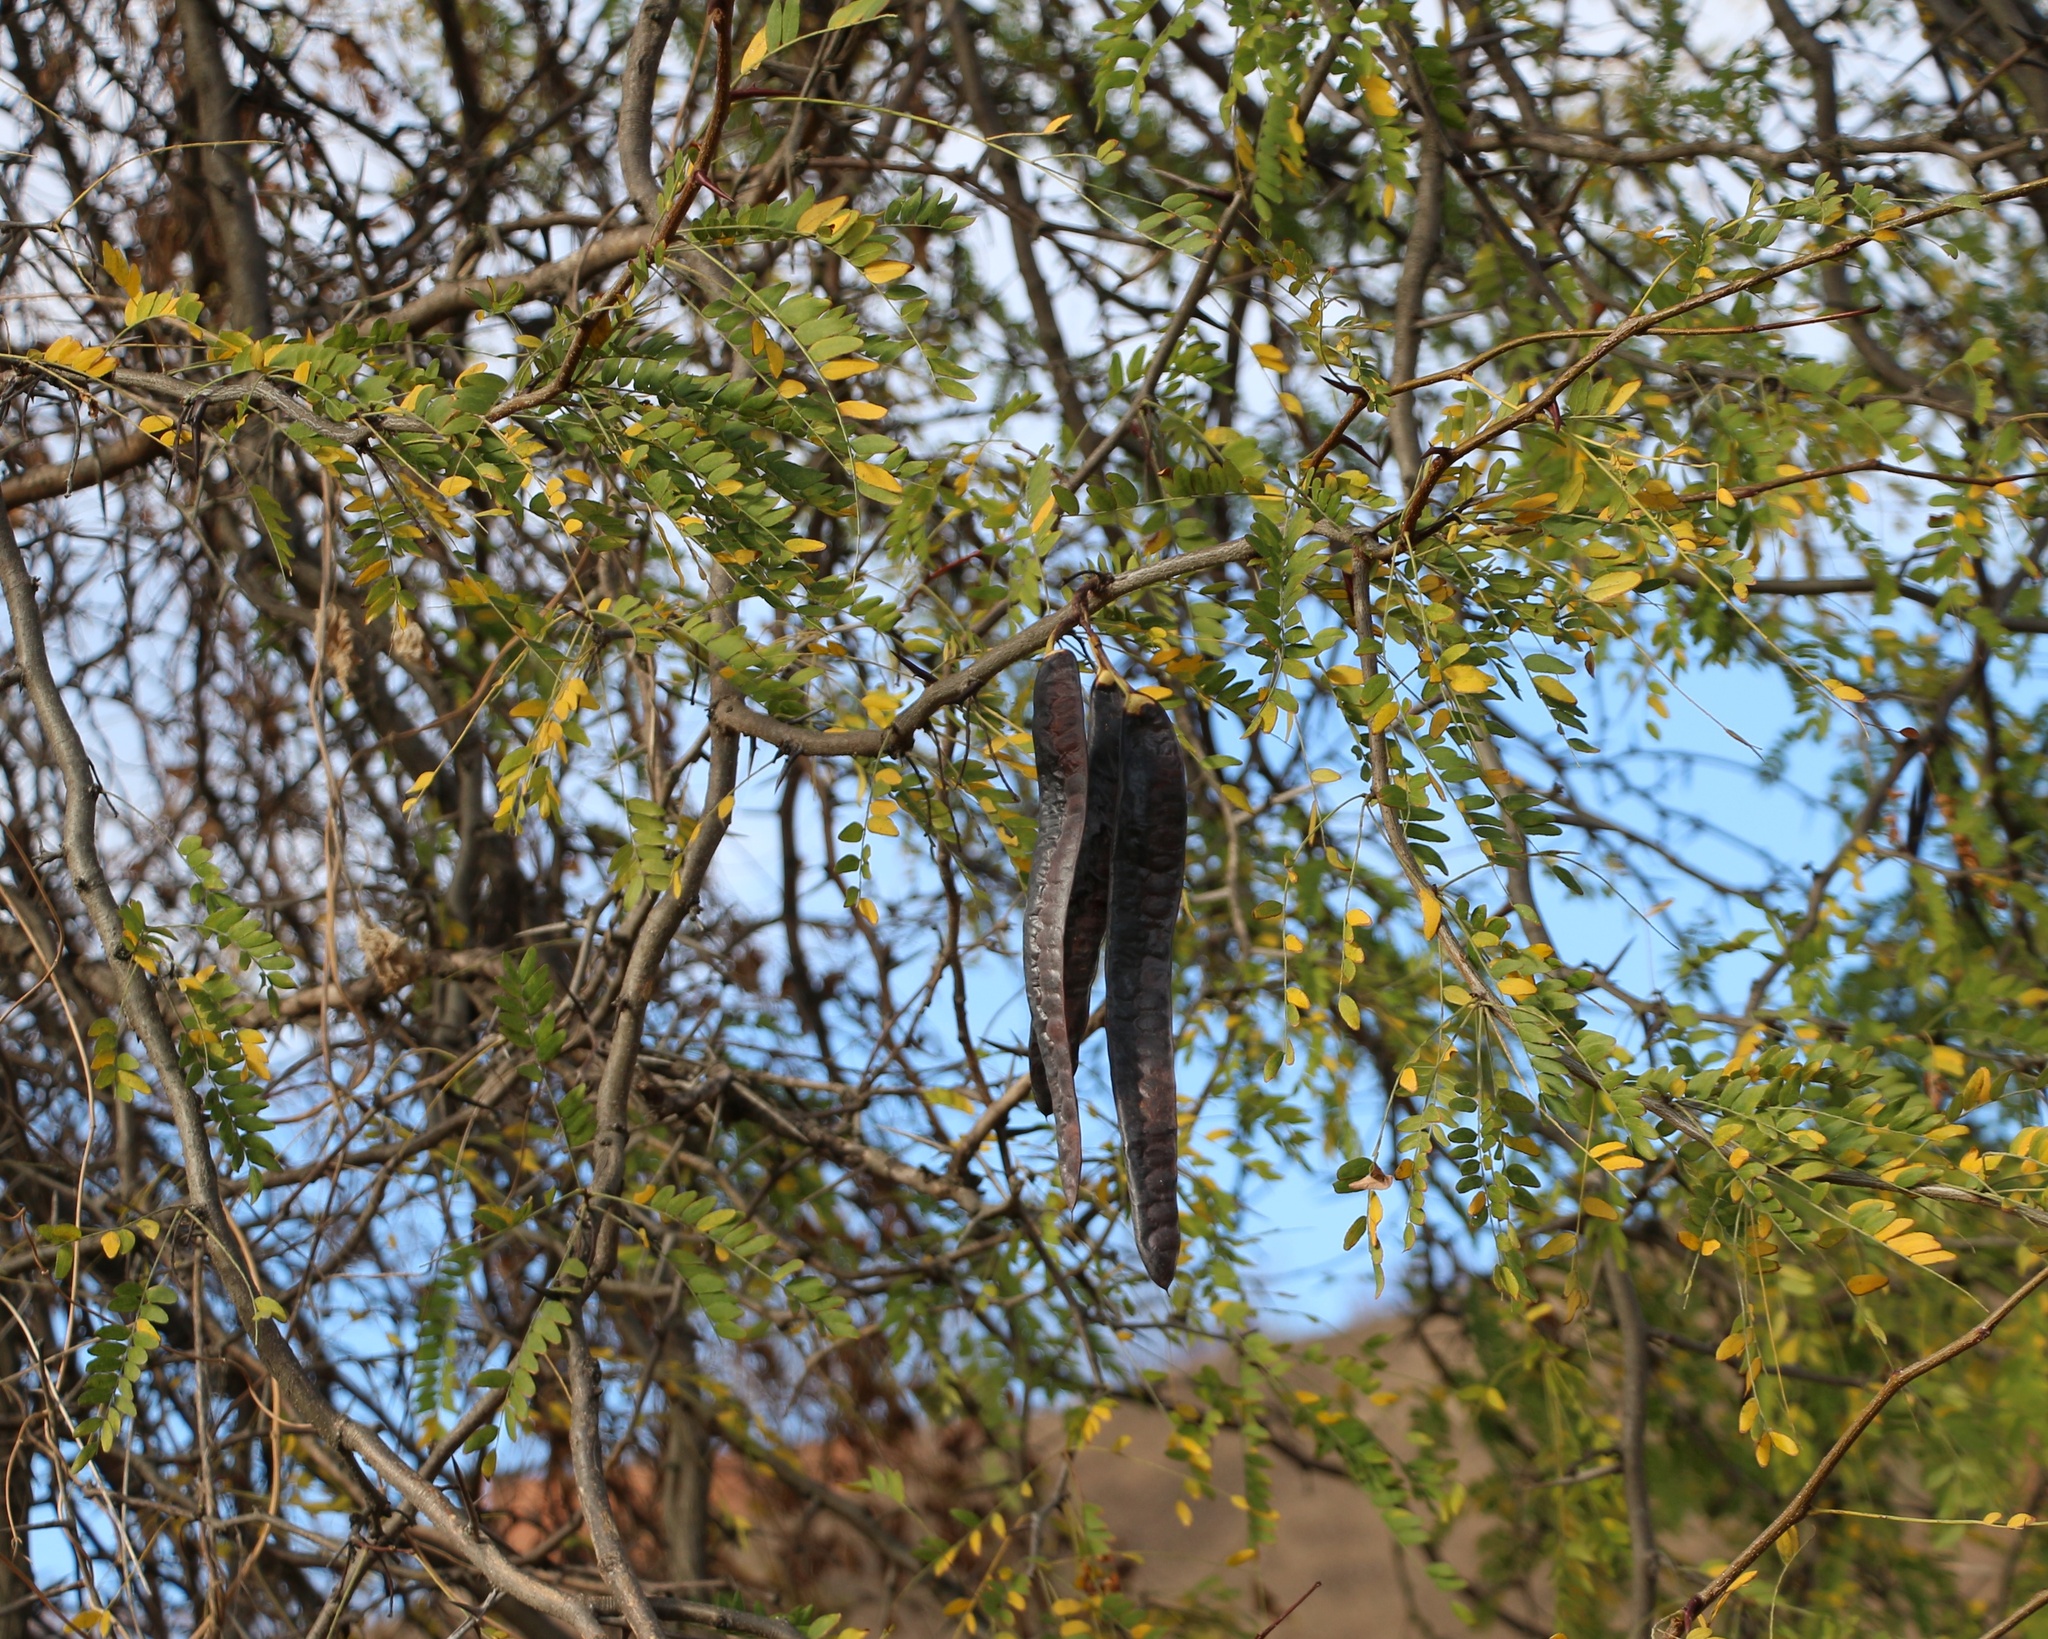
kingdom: Plantae
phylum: Tracheophyta
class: Magnoliopsida
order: Fabales
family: Fabaceae
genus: Gleditsia
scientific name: Gleditsia triacanthos
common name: Common honeylocust
